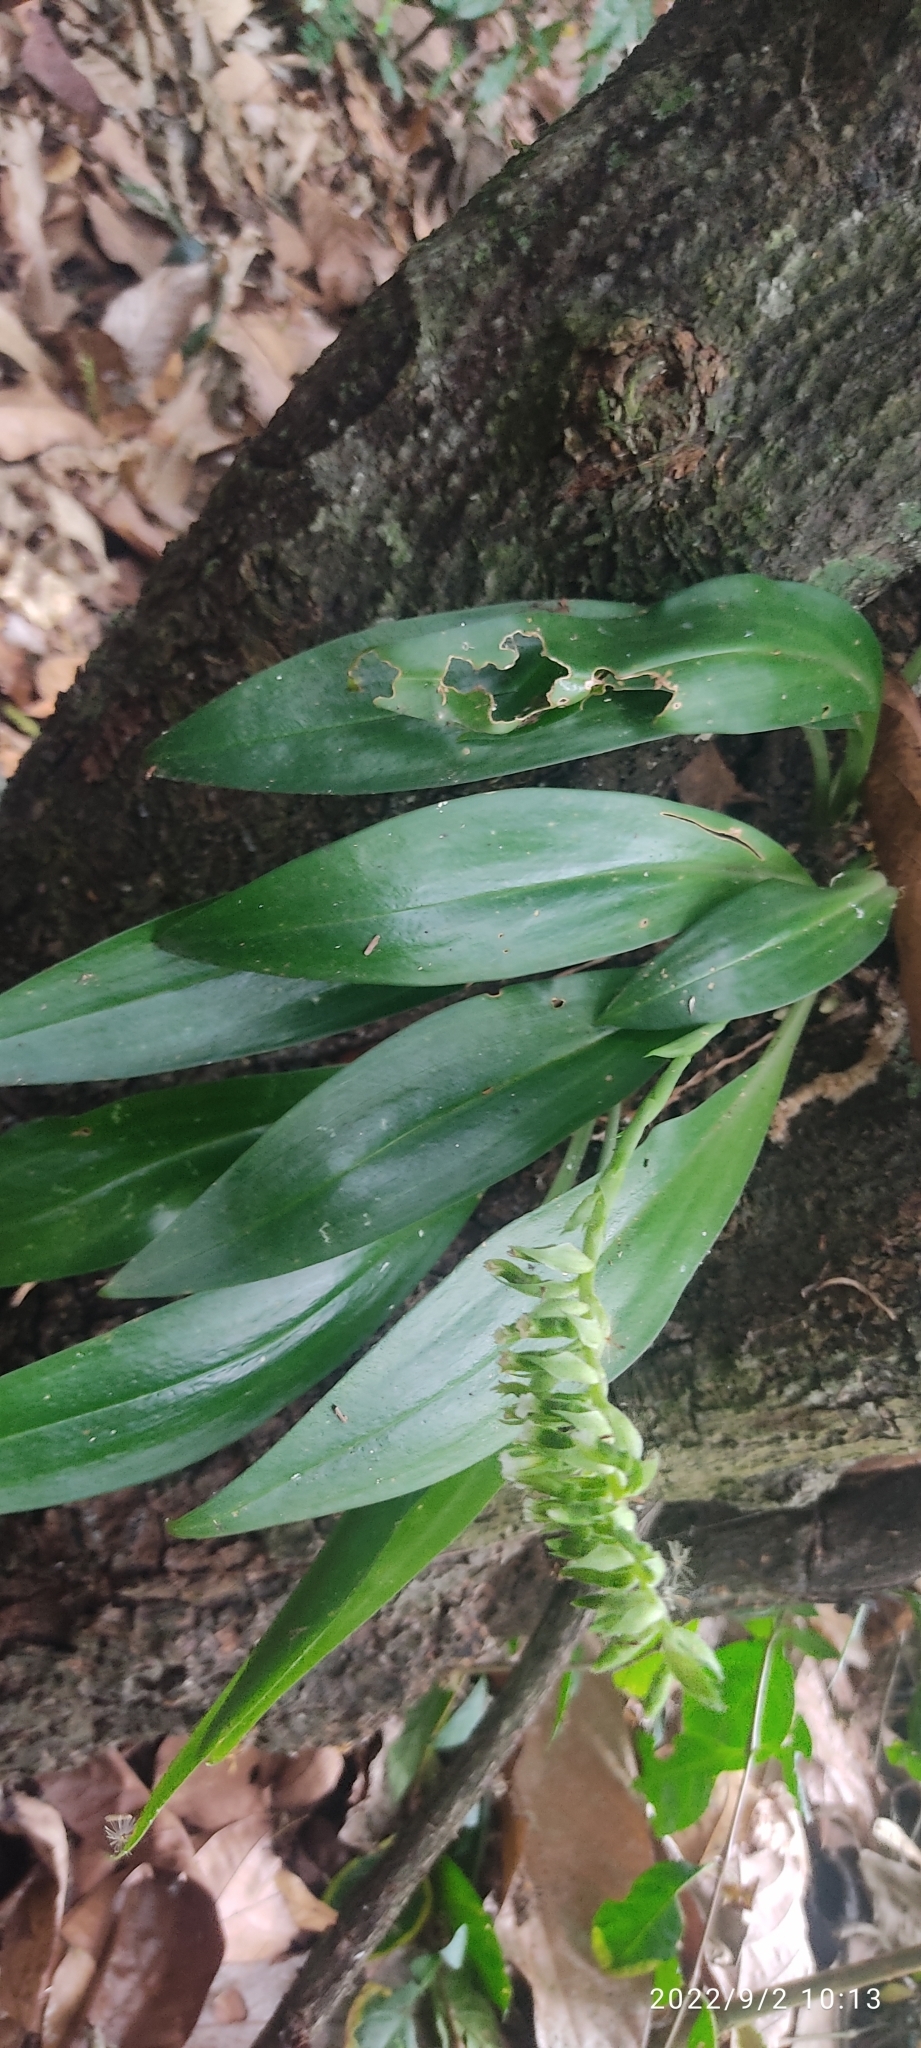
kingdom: Plantae
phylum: Tracheophyta
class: Liliopsida
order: Asparagales
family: Orchidaceae
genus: Cyclopogon
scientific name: Cyclopogon congestus
